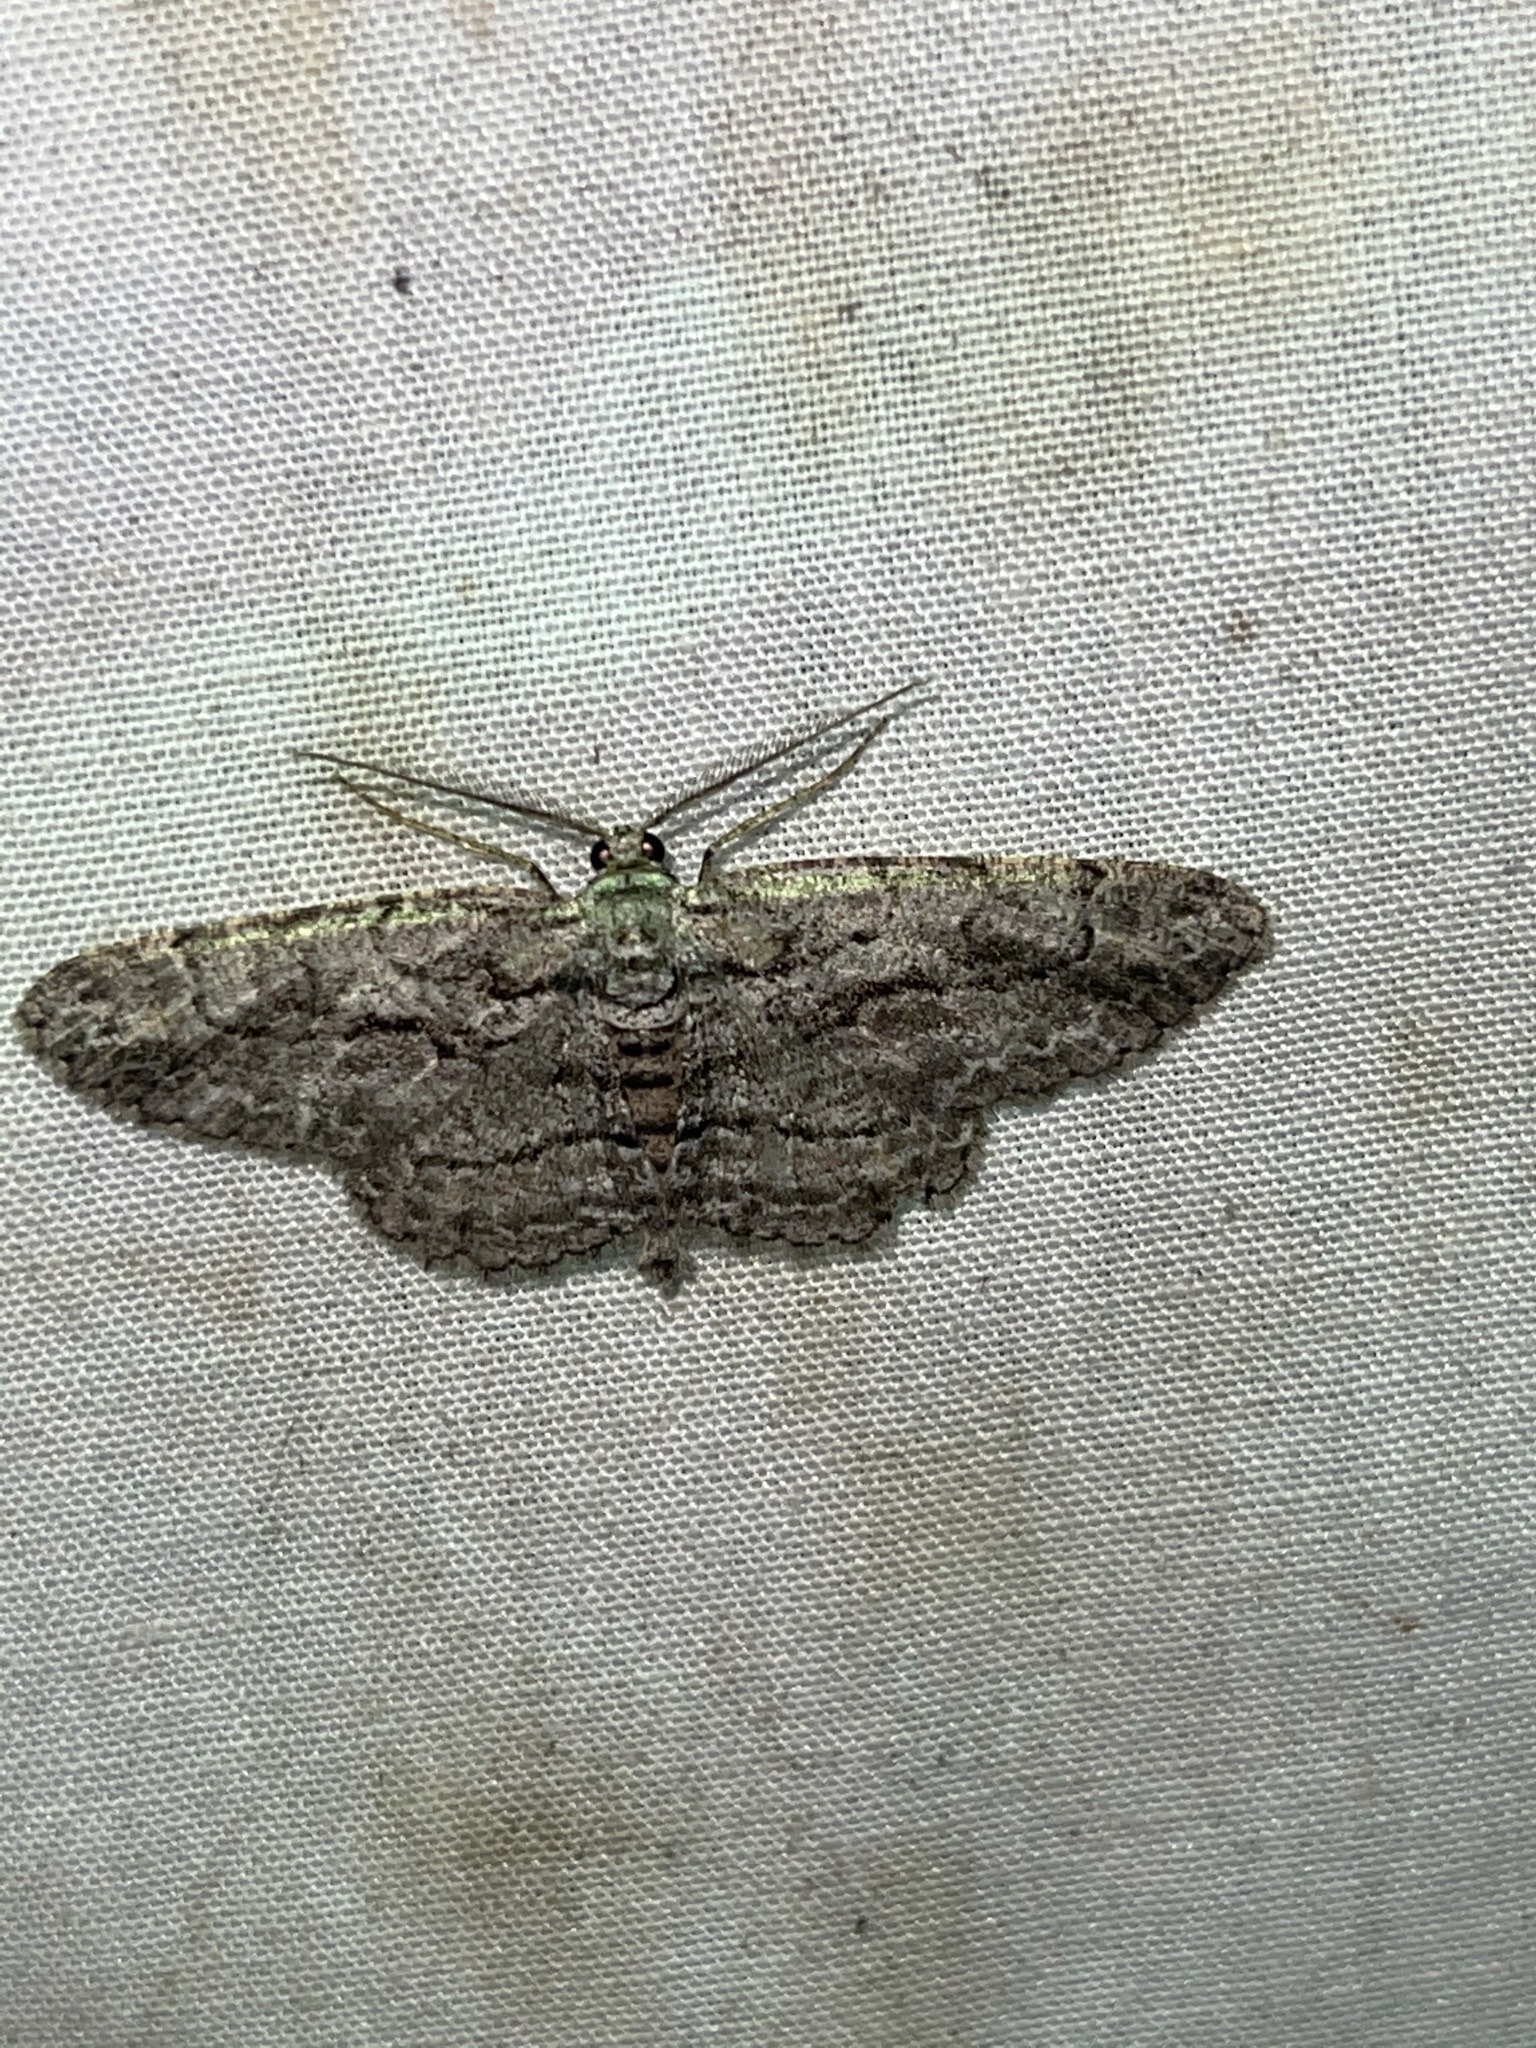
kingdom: Animalia
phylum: Arthropoda
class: Insecta
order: Lepidoptera
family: Geometridae
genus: Anavitrinella
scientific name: Anavitrinella pampinaria
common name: Common gray
